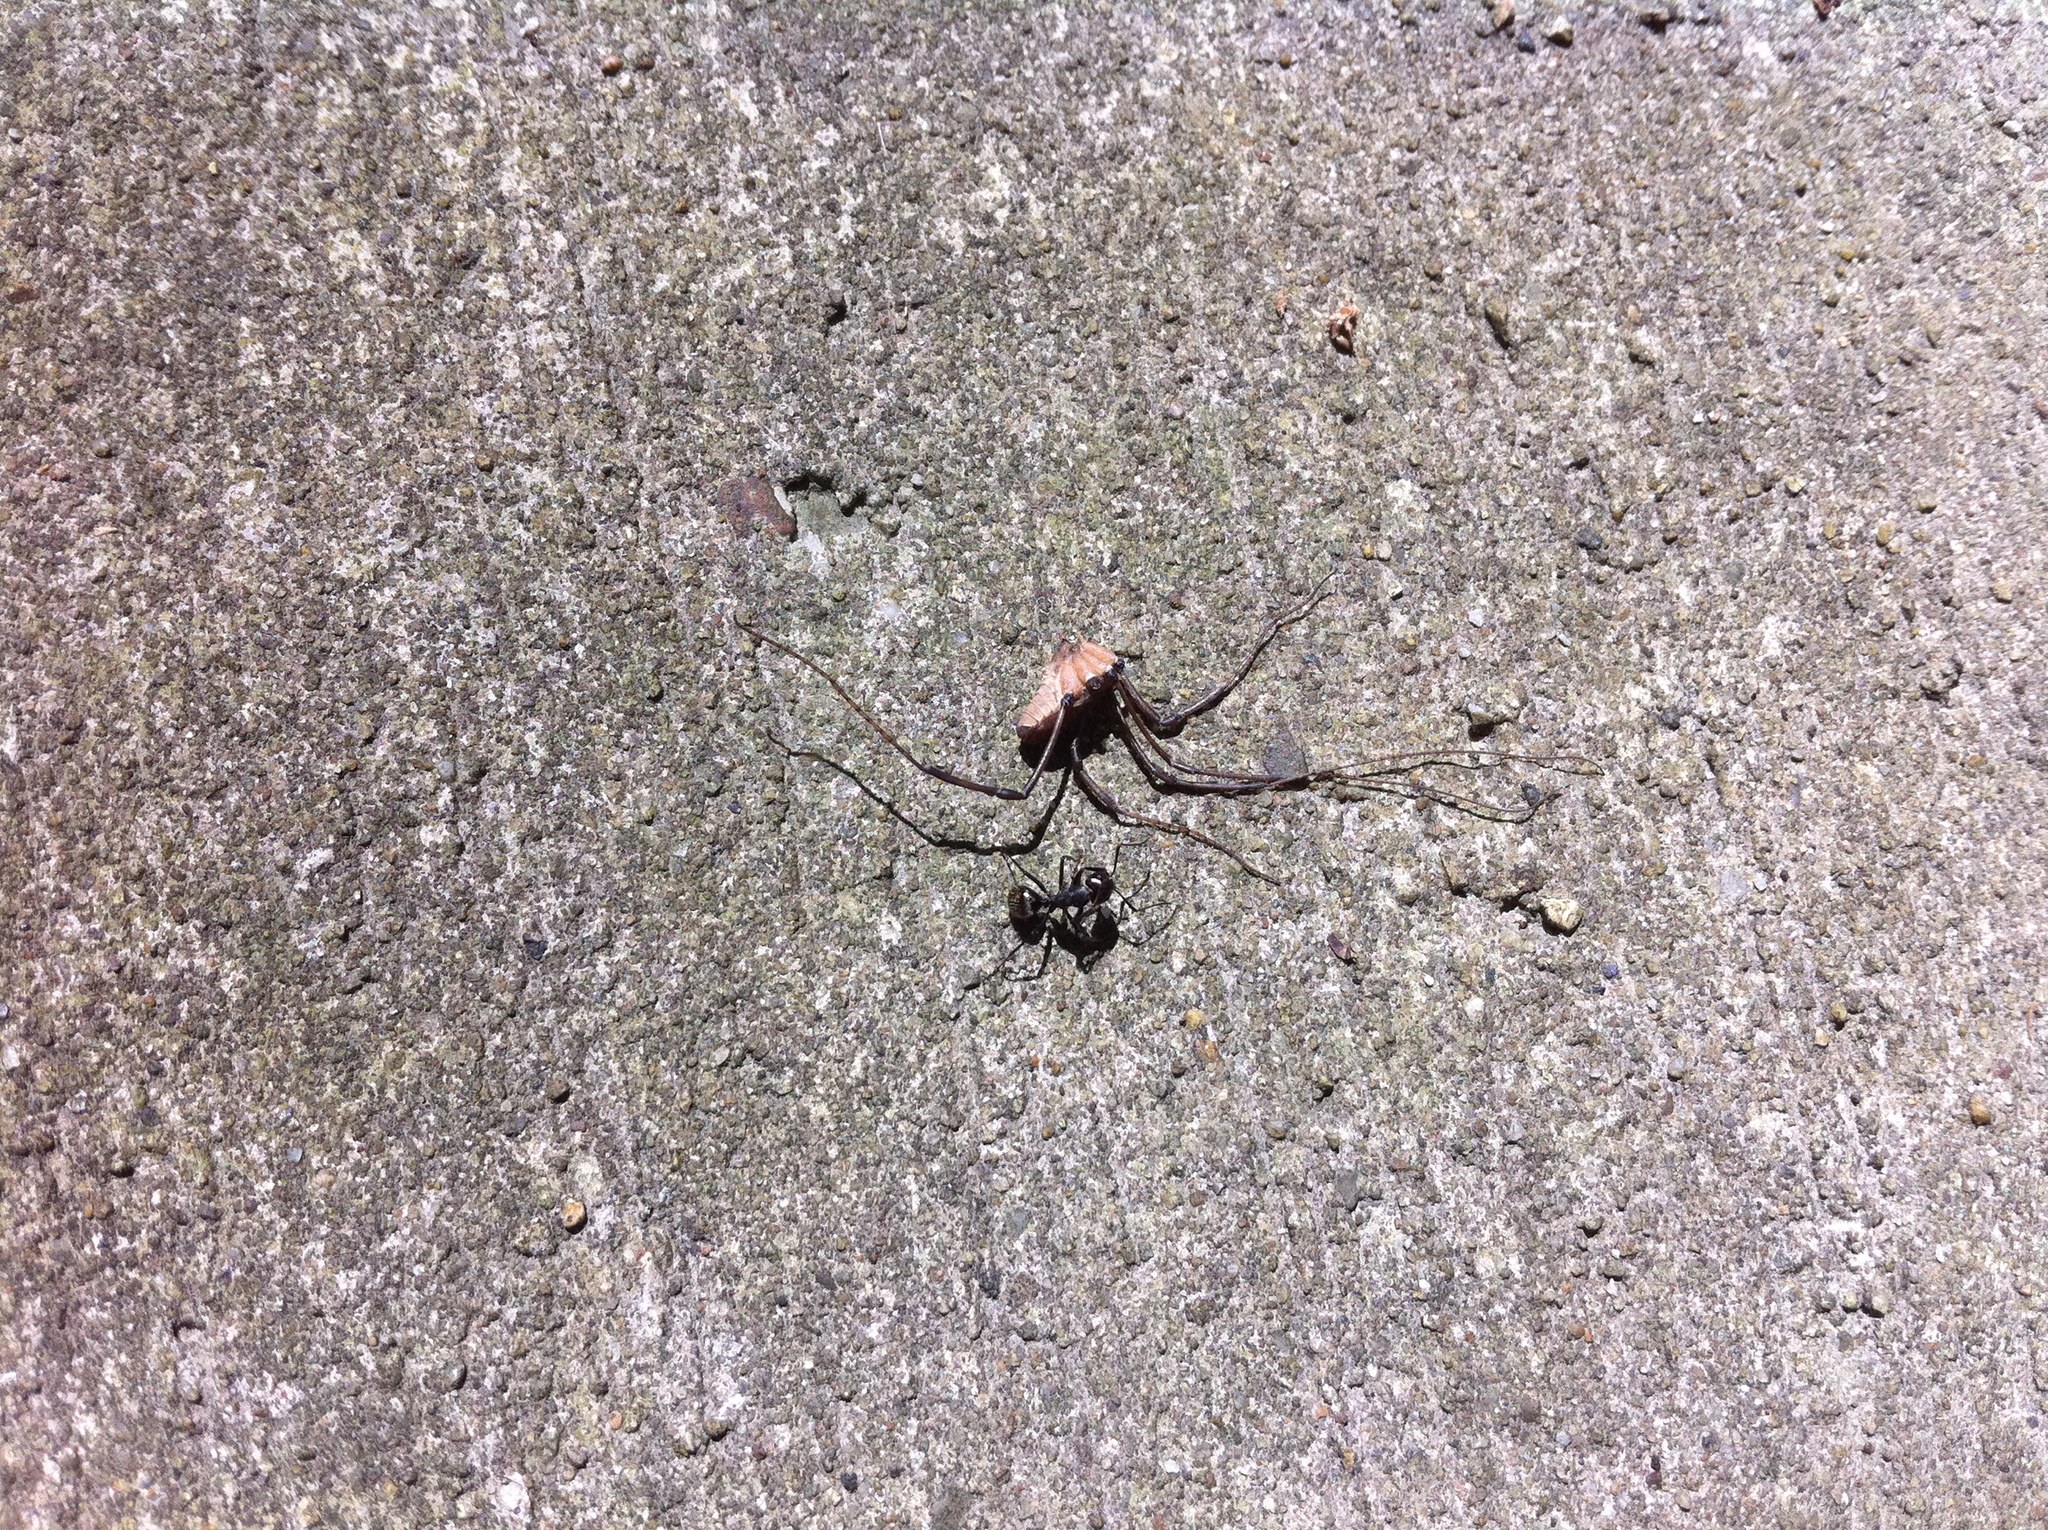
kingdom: Animalia
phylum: Arthropoda
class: Insecta
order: Hymenoptera
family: Formicidae
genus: Camponotus
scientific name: Camponotus pennsylvanicus
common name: Black carpenter ant
